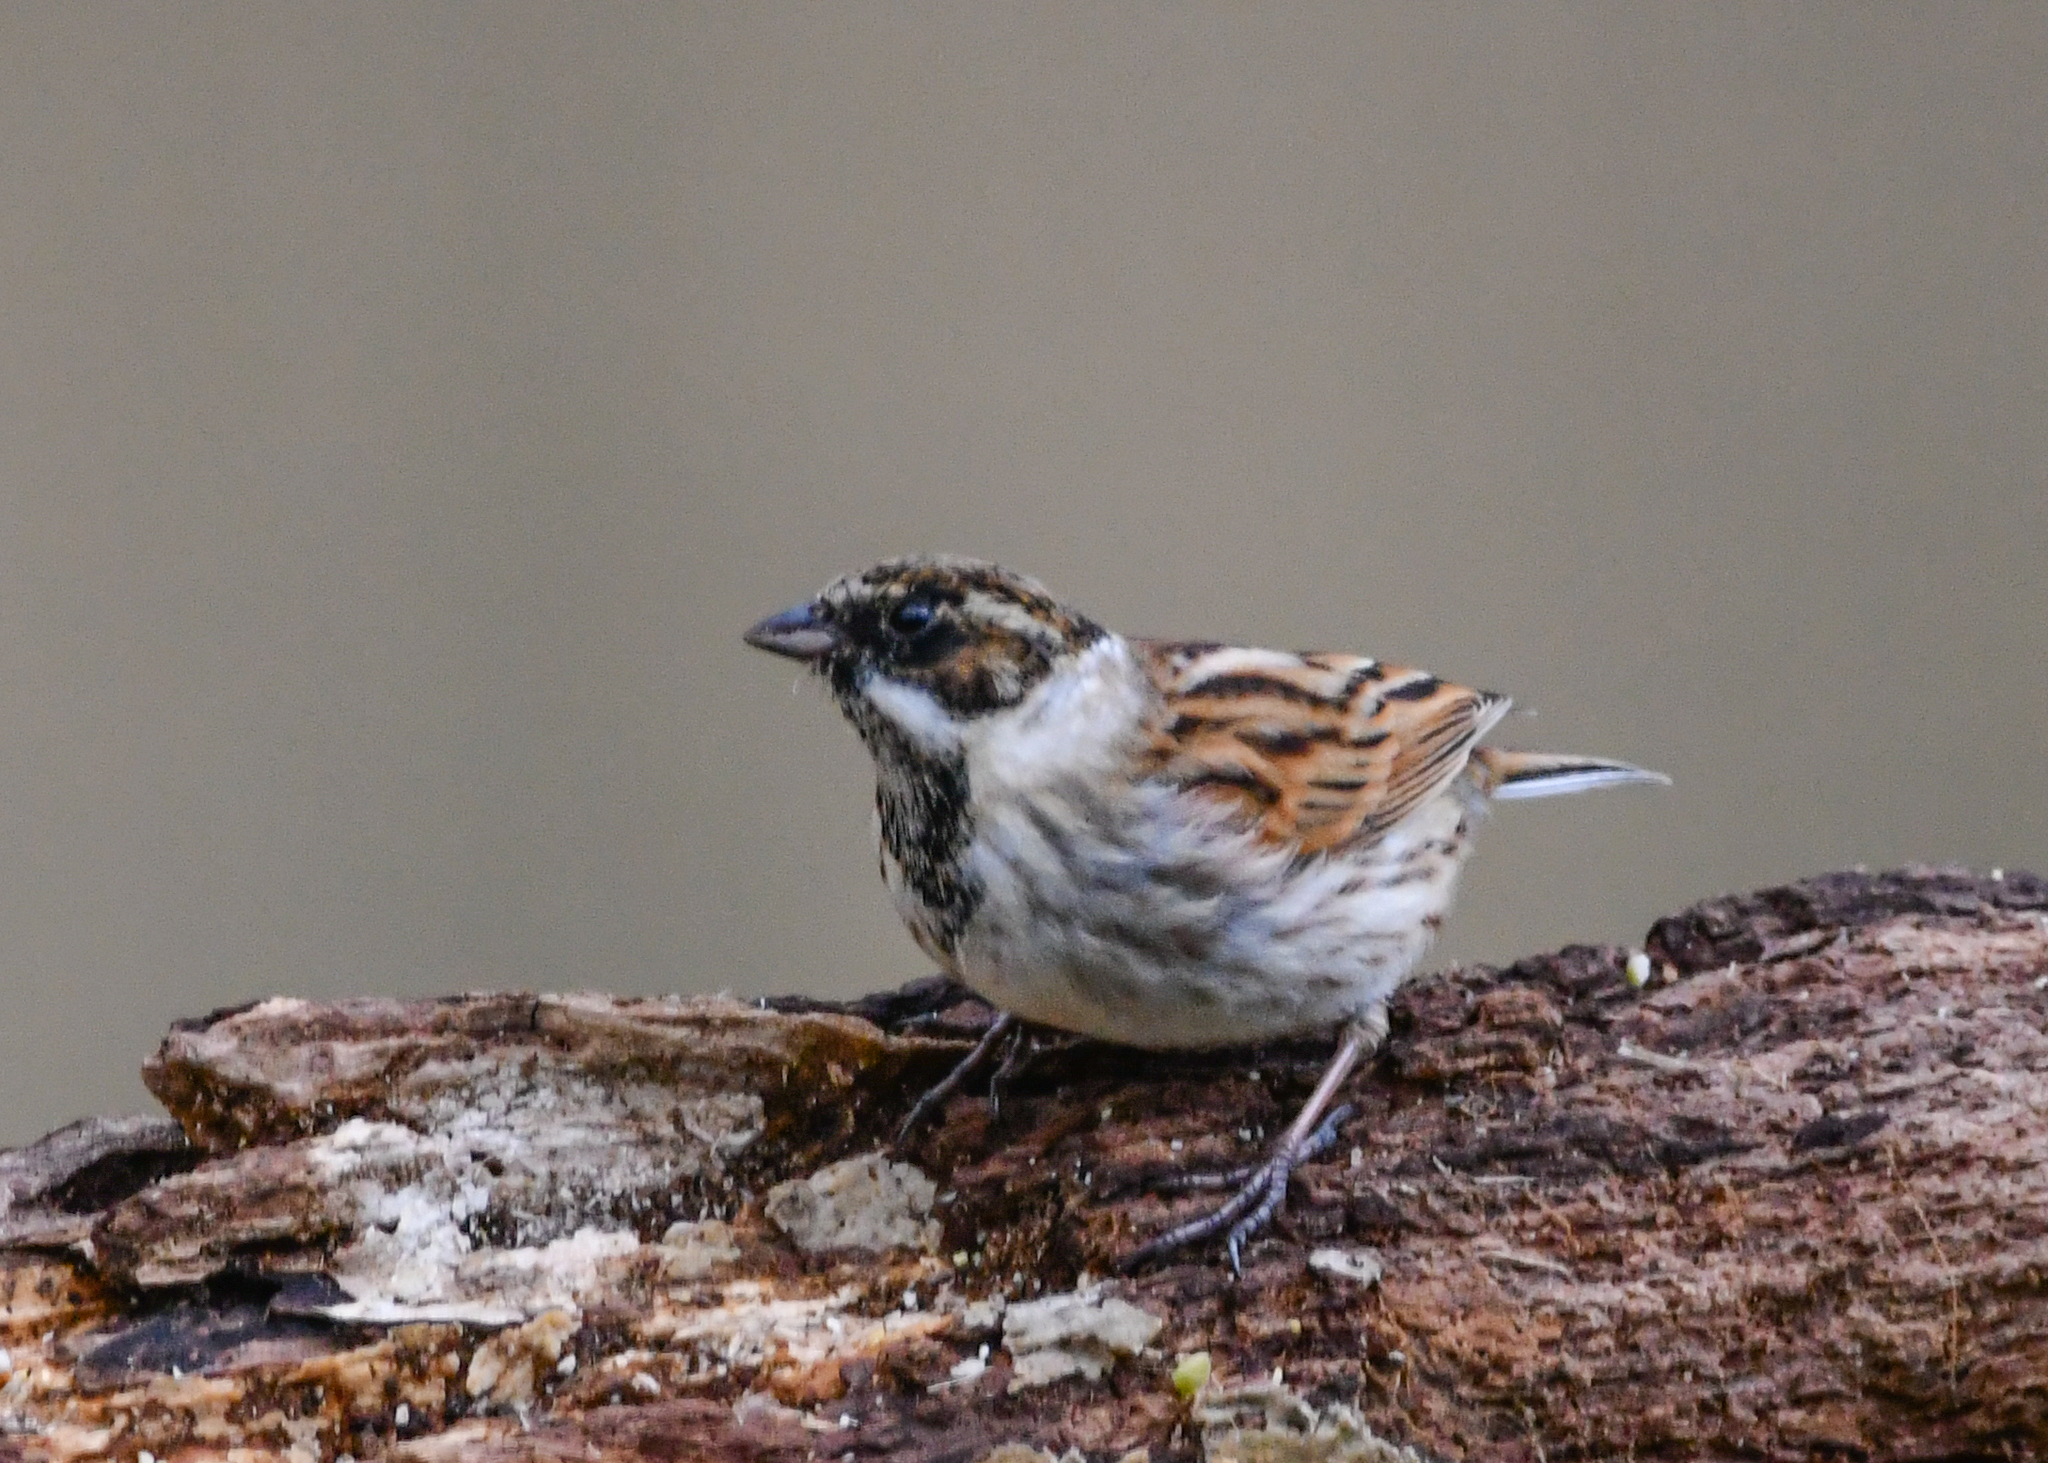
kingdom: Animalia
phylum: Chordata
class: Aves
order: Passeriformes
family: Emberizidae
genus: Emberiza
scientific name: Emberiza schoeniclus
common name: Reed bunting
